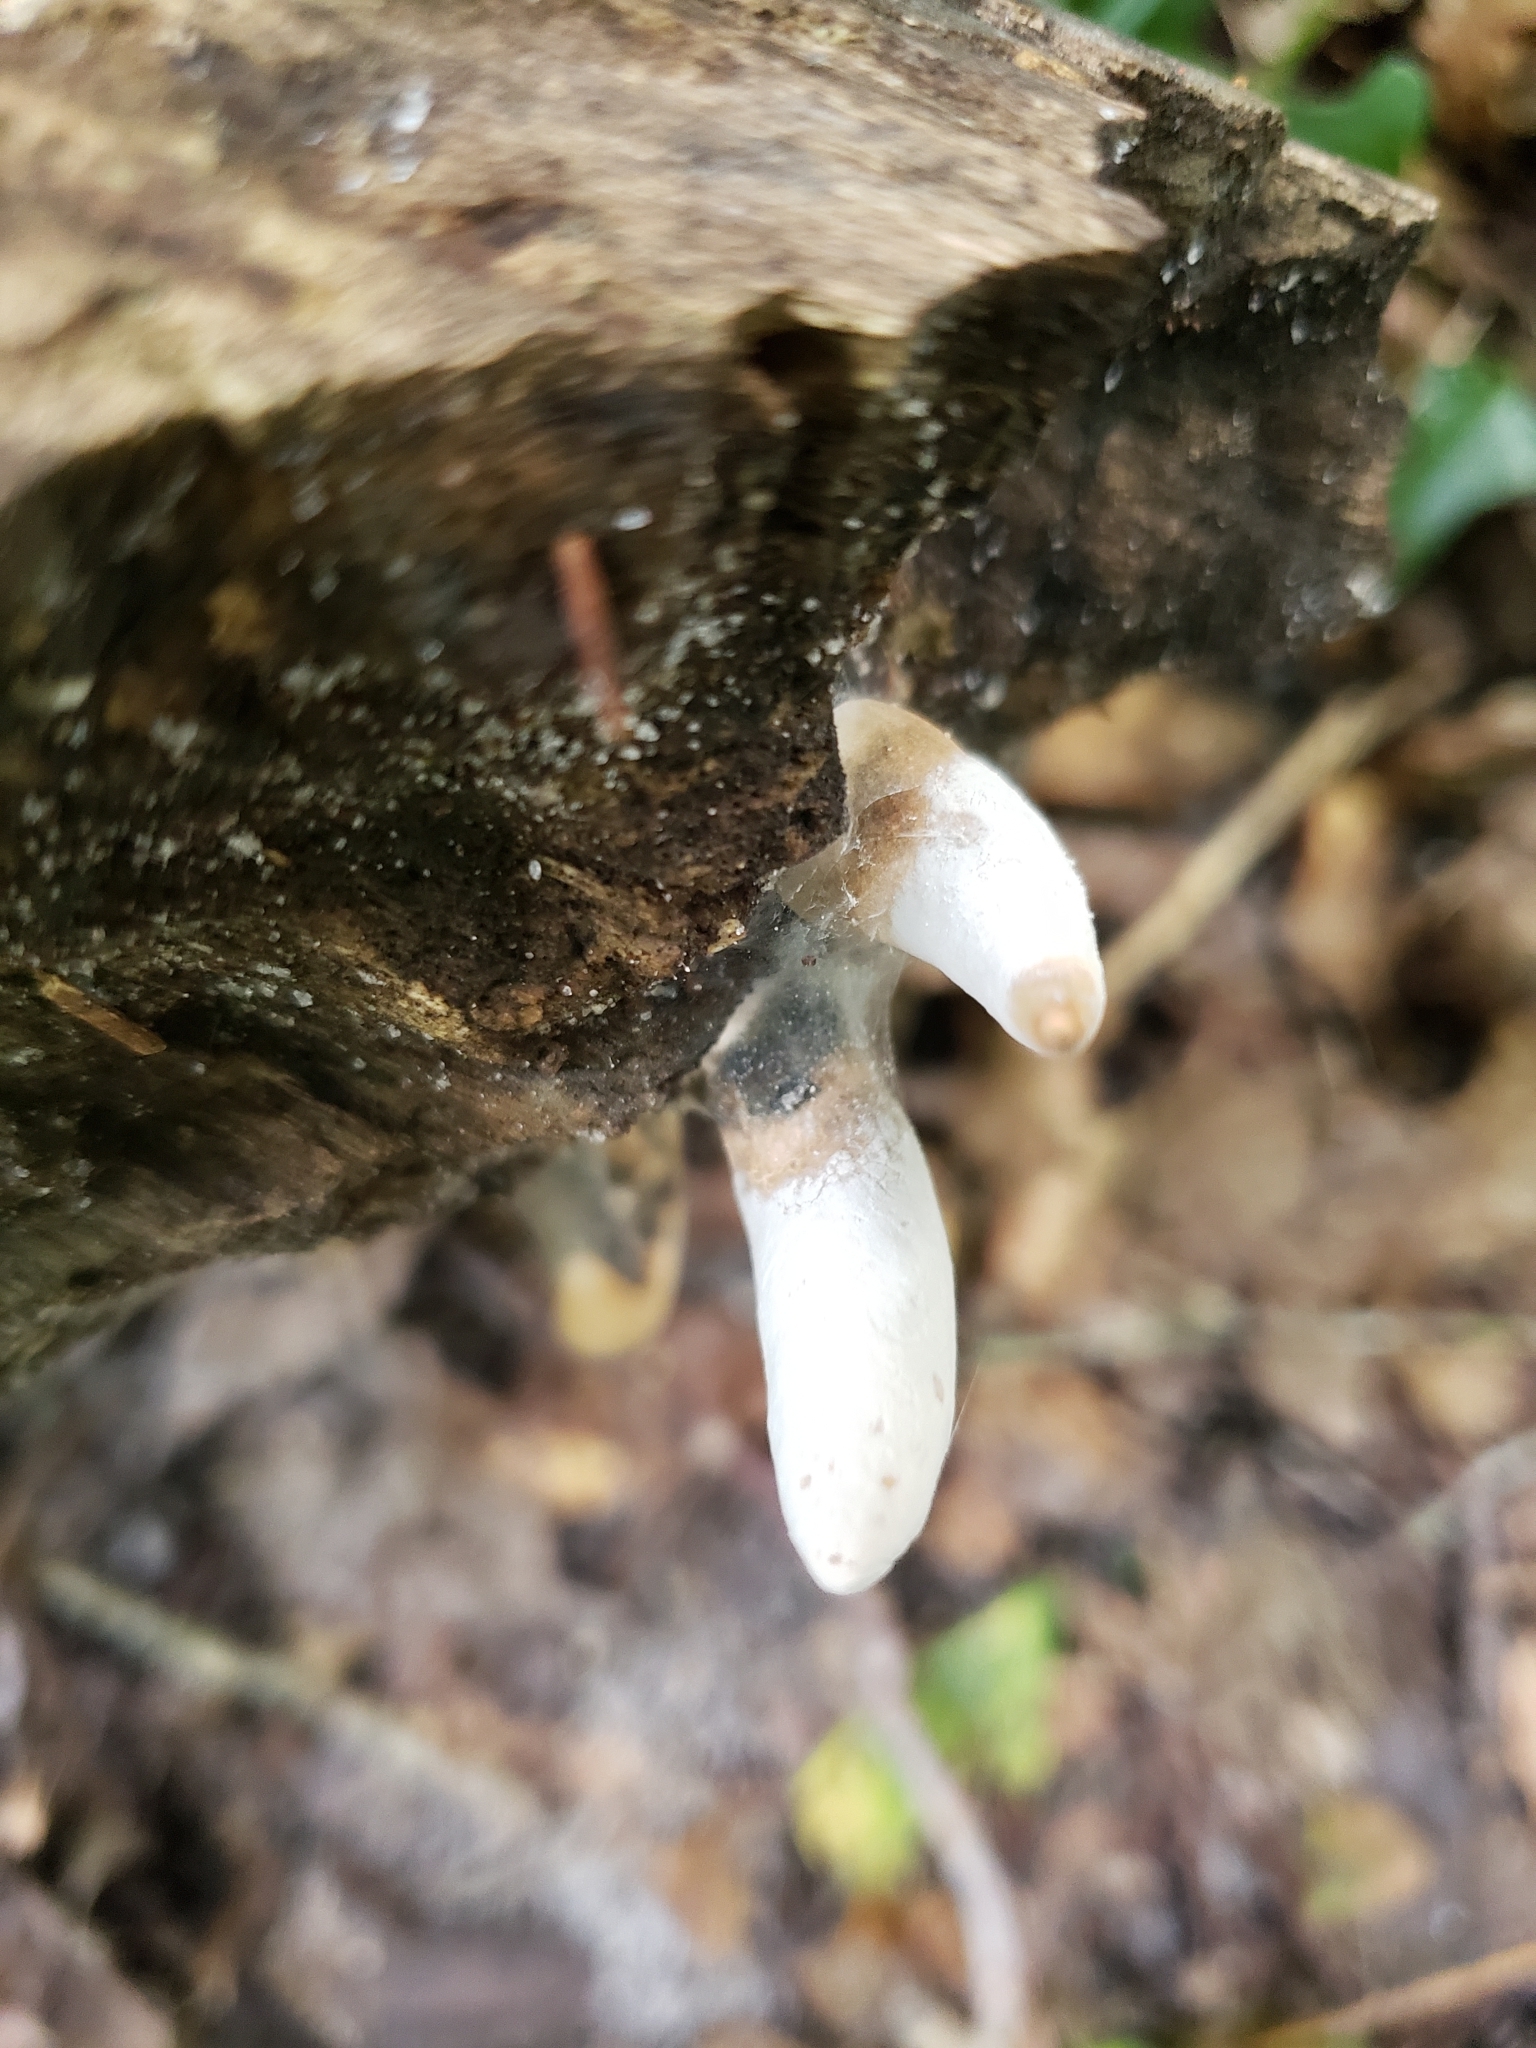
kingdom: Fungi
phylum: Ascomycota
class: Sordariomycetes
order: Xylariales
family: Xylariaceae
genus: Xylaria
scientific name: Xylaria polymorpha
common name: Dead man's fingers
